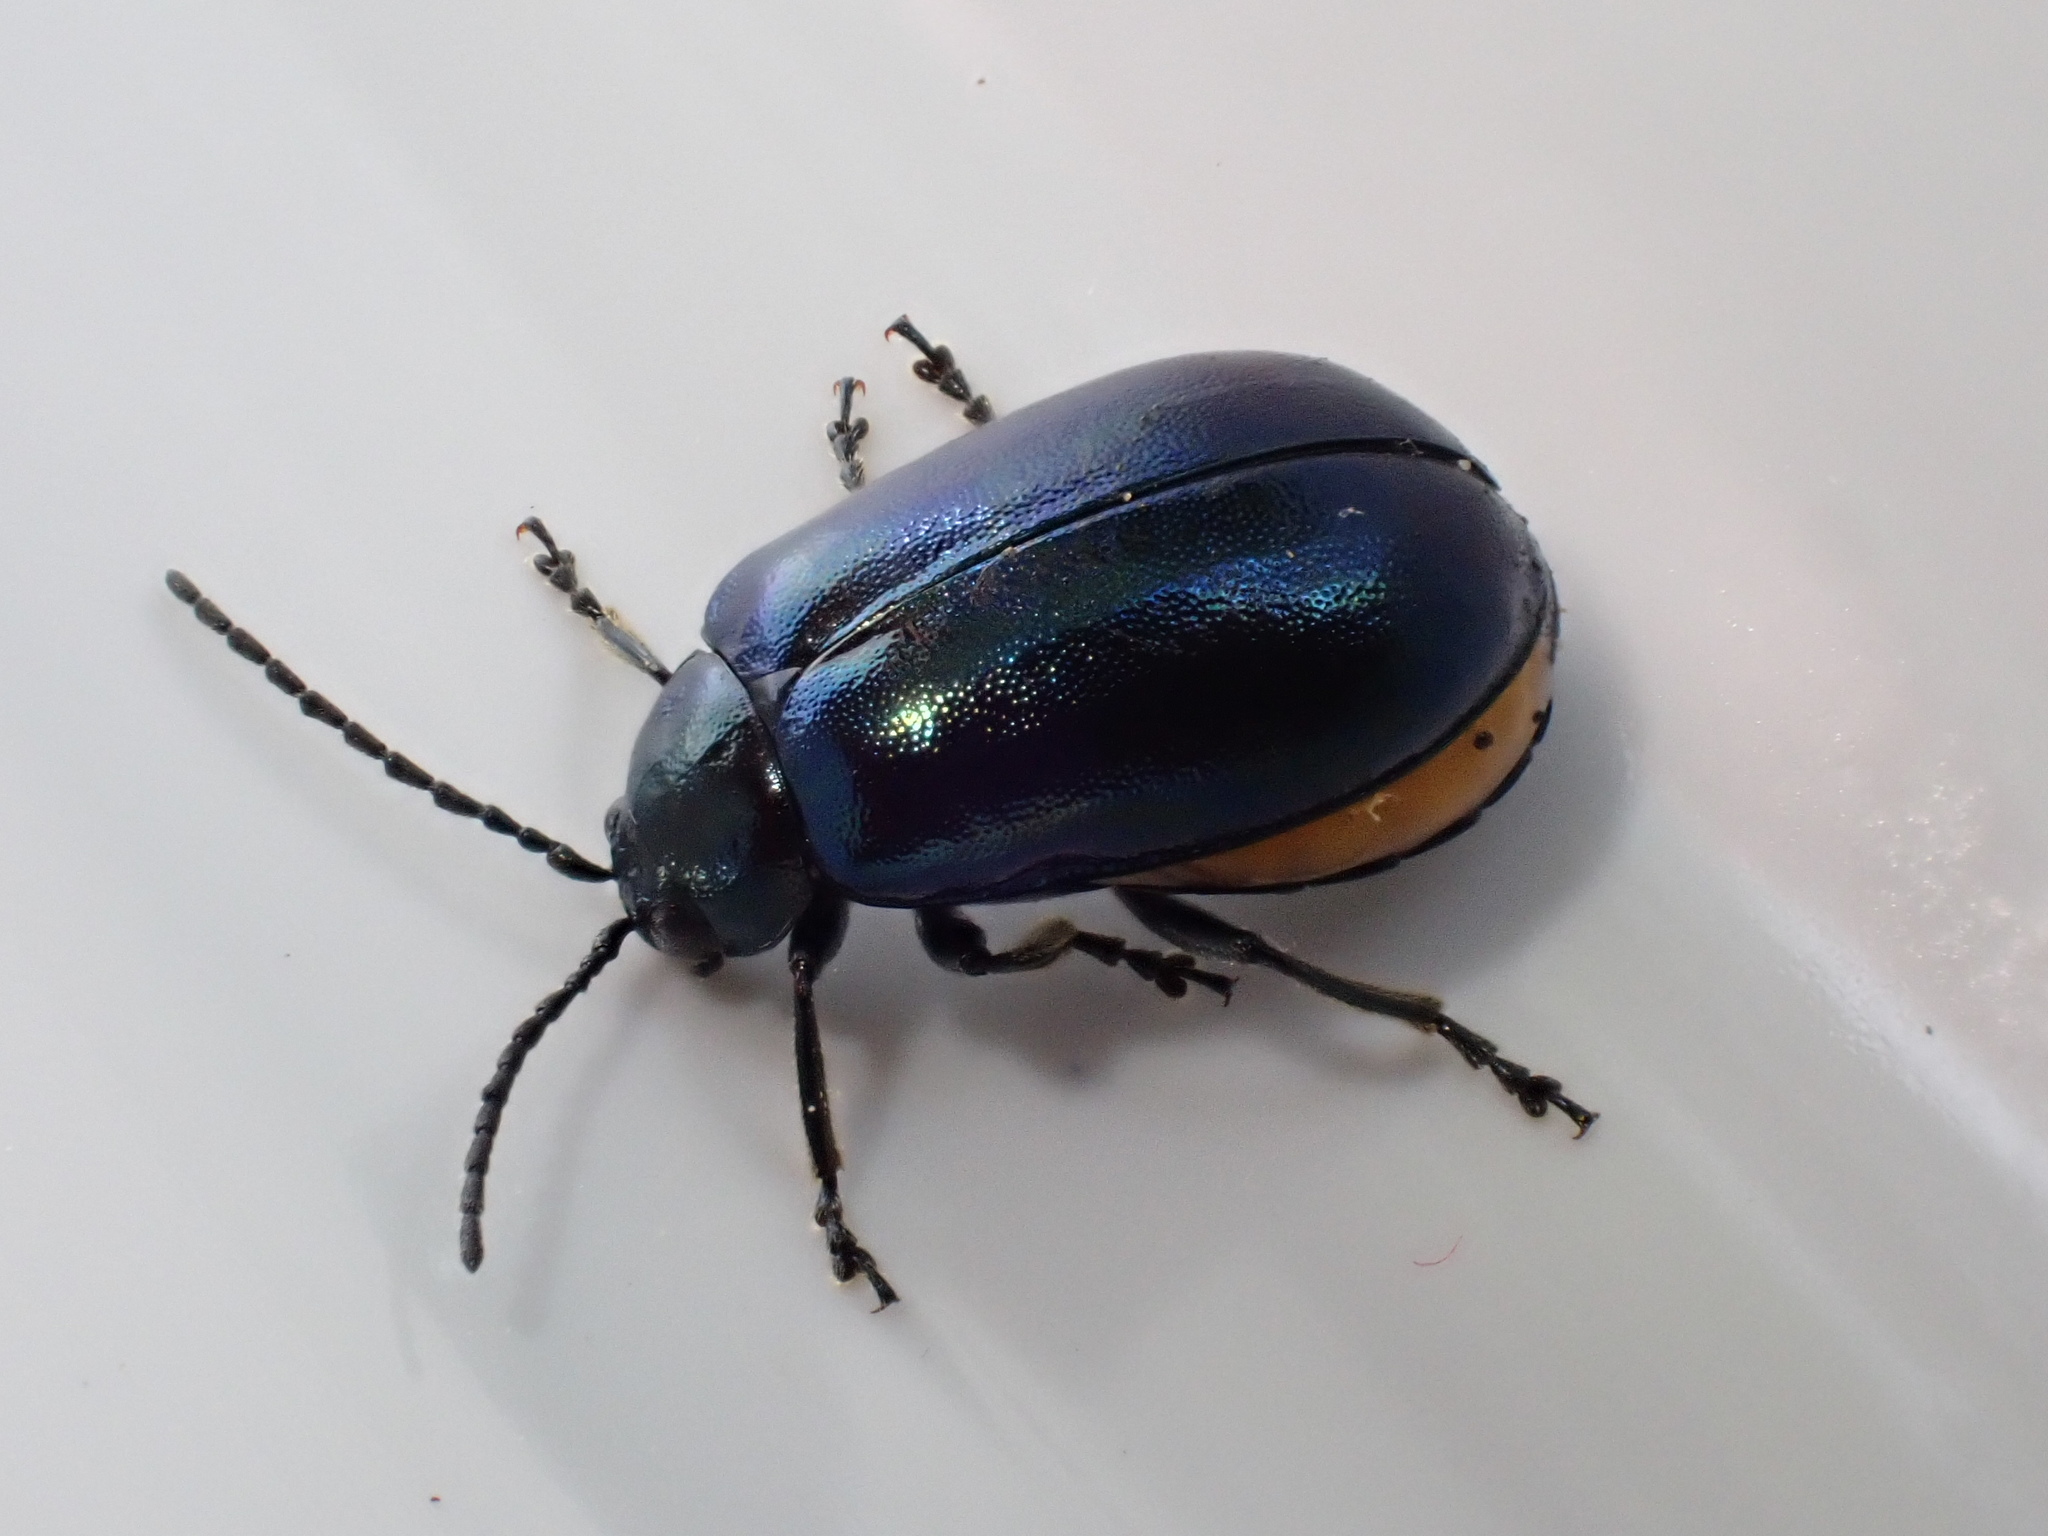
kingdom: Animalia
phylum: Arthropoda
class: Insecta
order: Coleoptera
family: Chrysomelidae
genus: Agelastica
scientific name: Agelastica alni
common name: Alder leaf beetle
